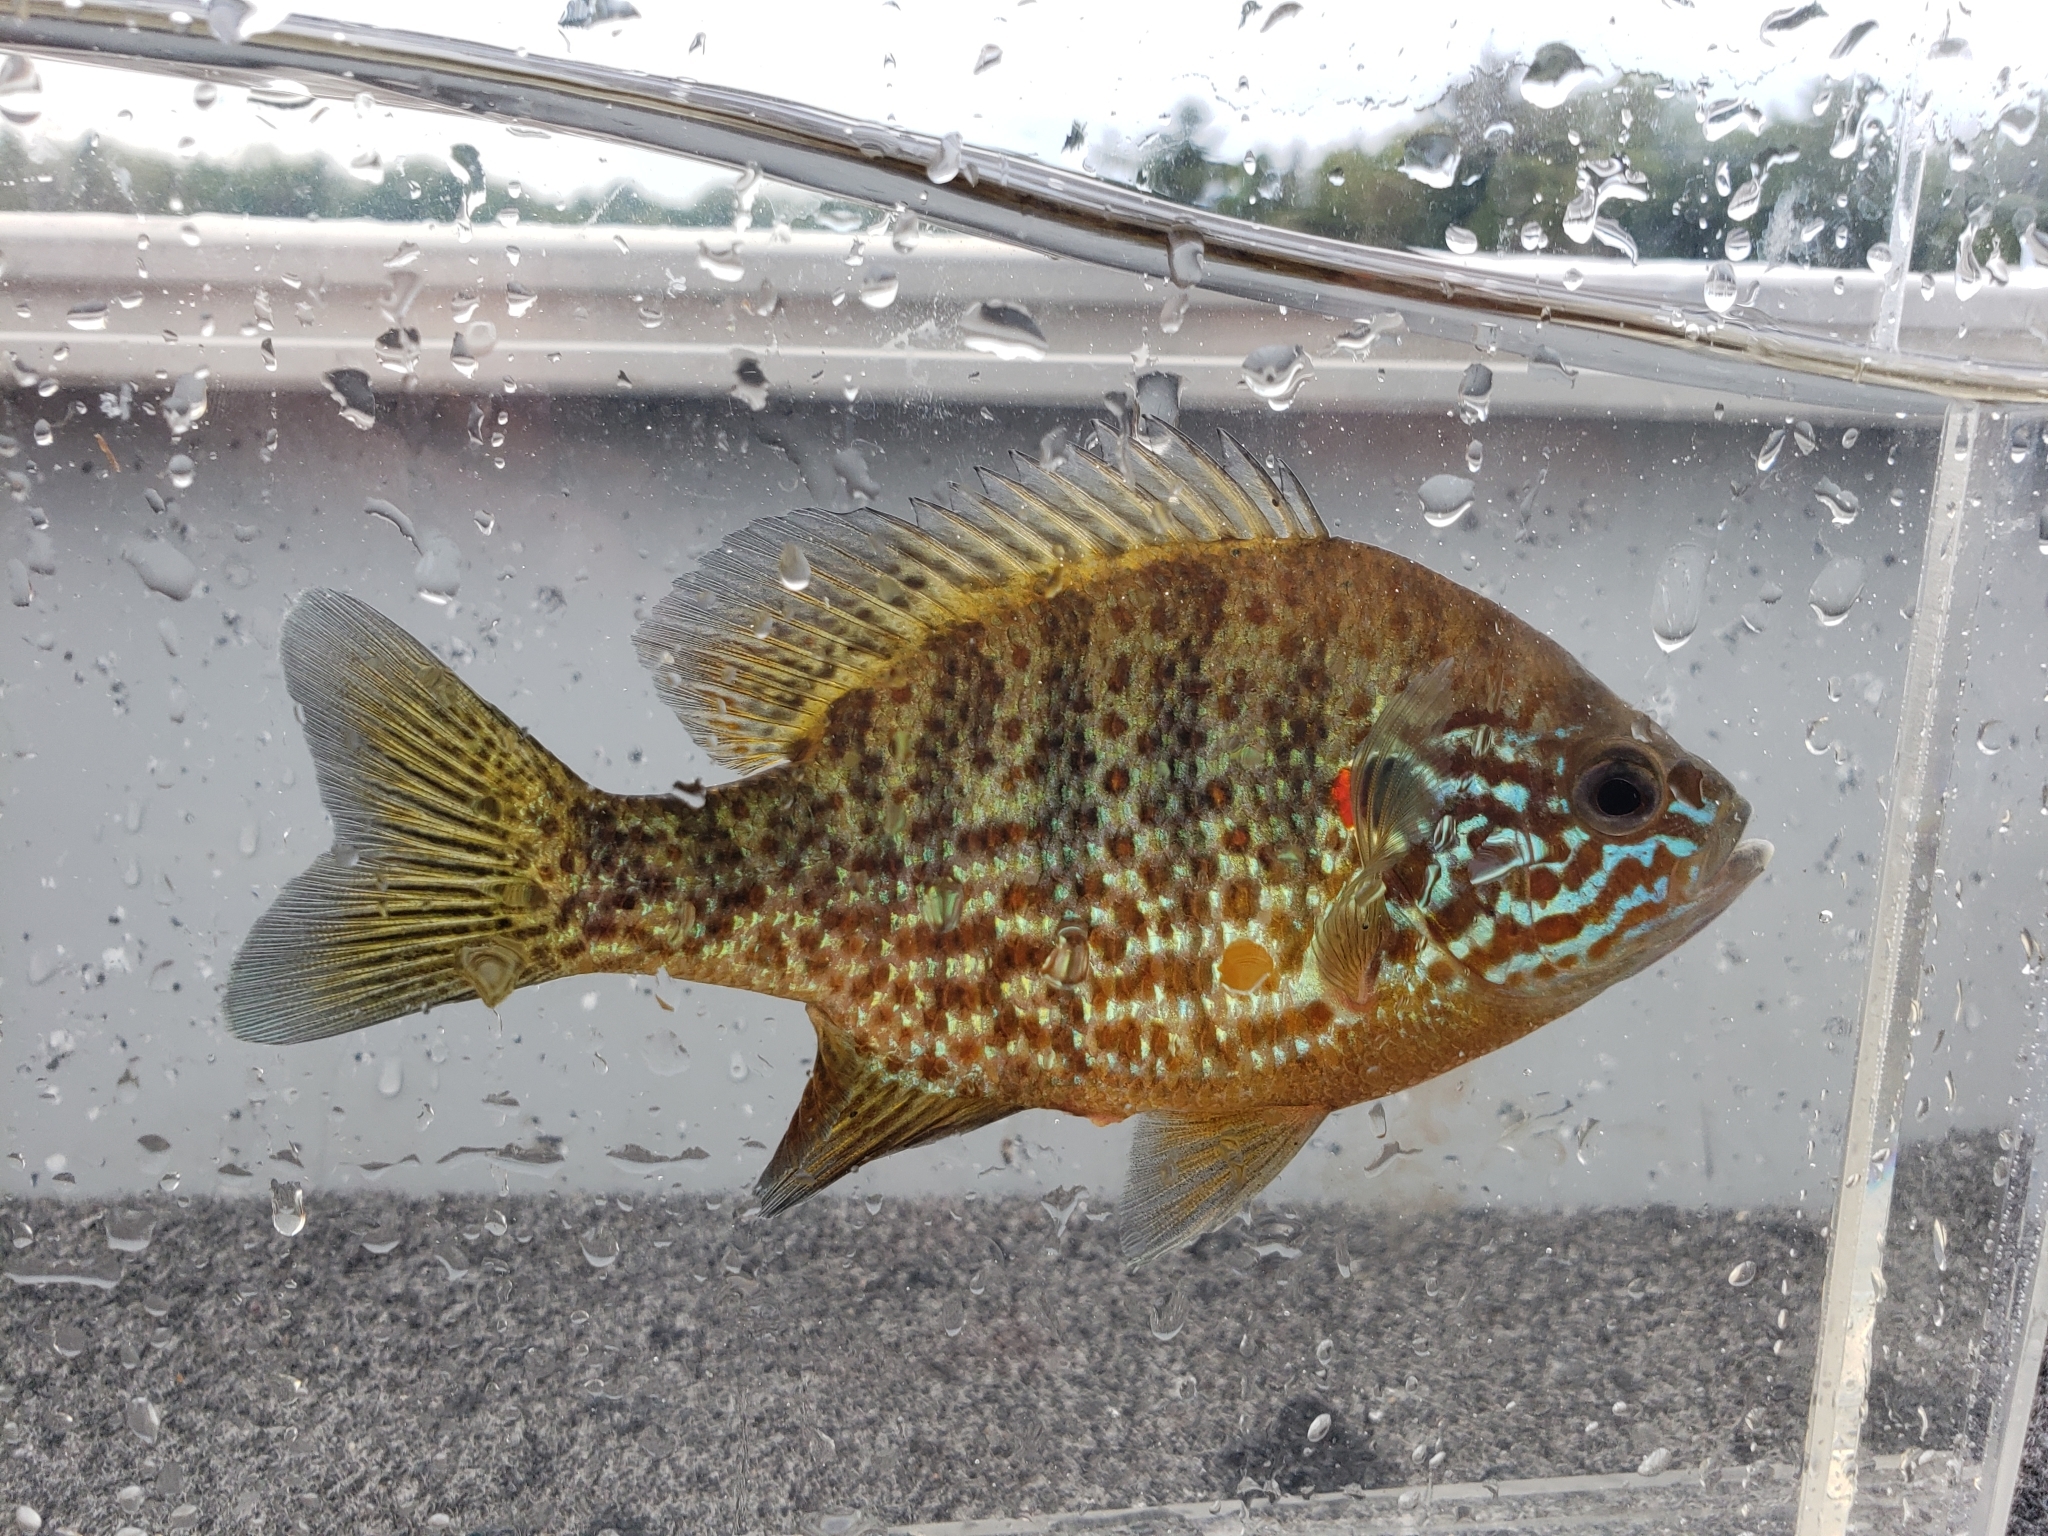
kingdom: Animalia
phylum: Chordata
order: Perciformes
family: Centrarchidae
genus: Lepomis
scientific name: Lepomis gibbosus
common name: Pumpkinseed
